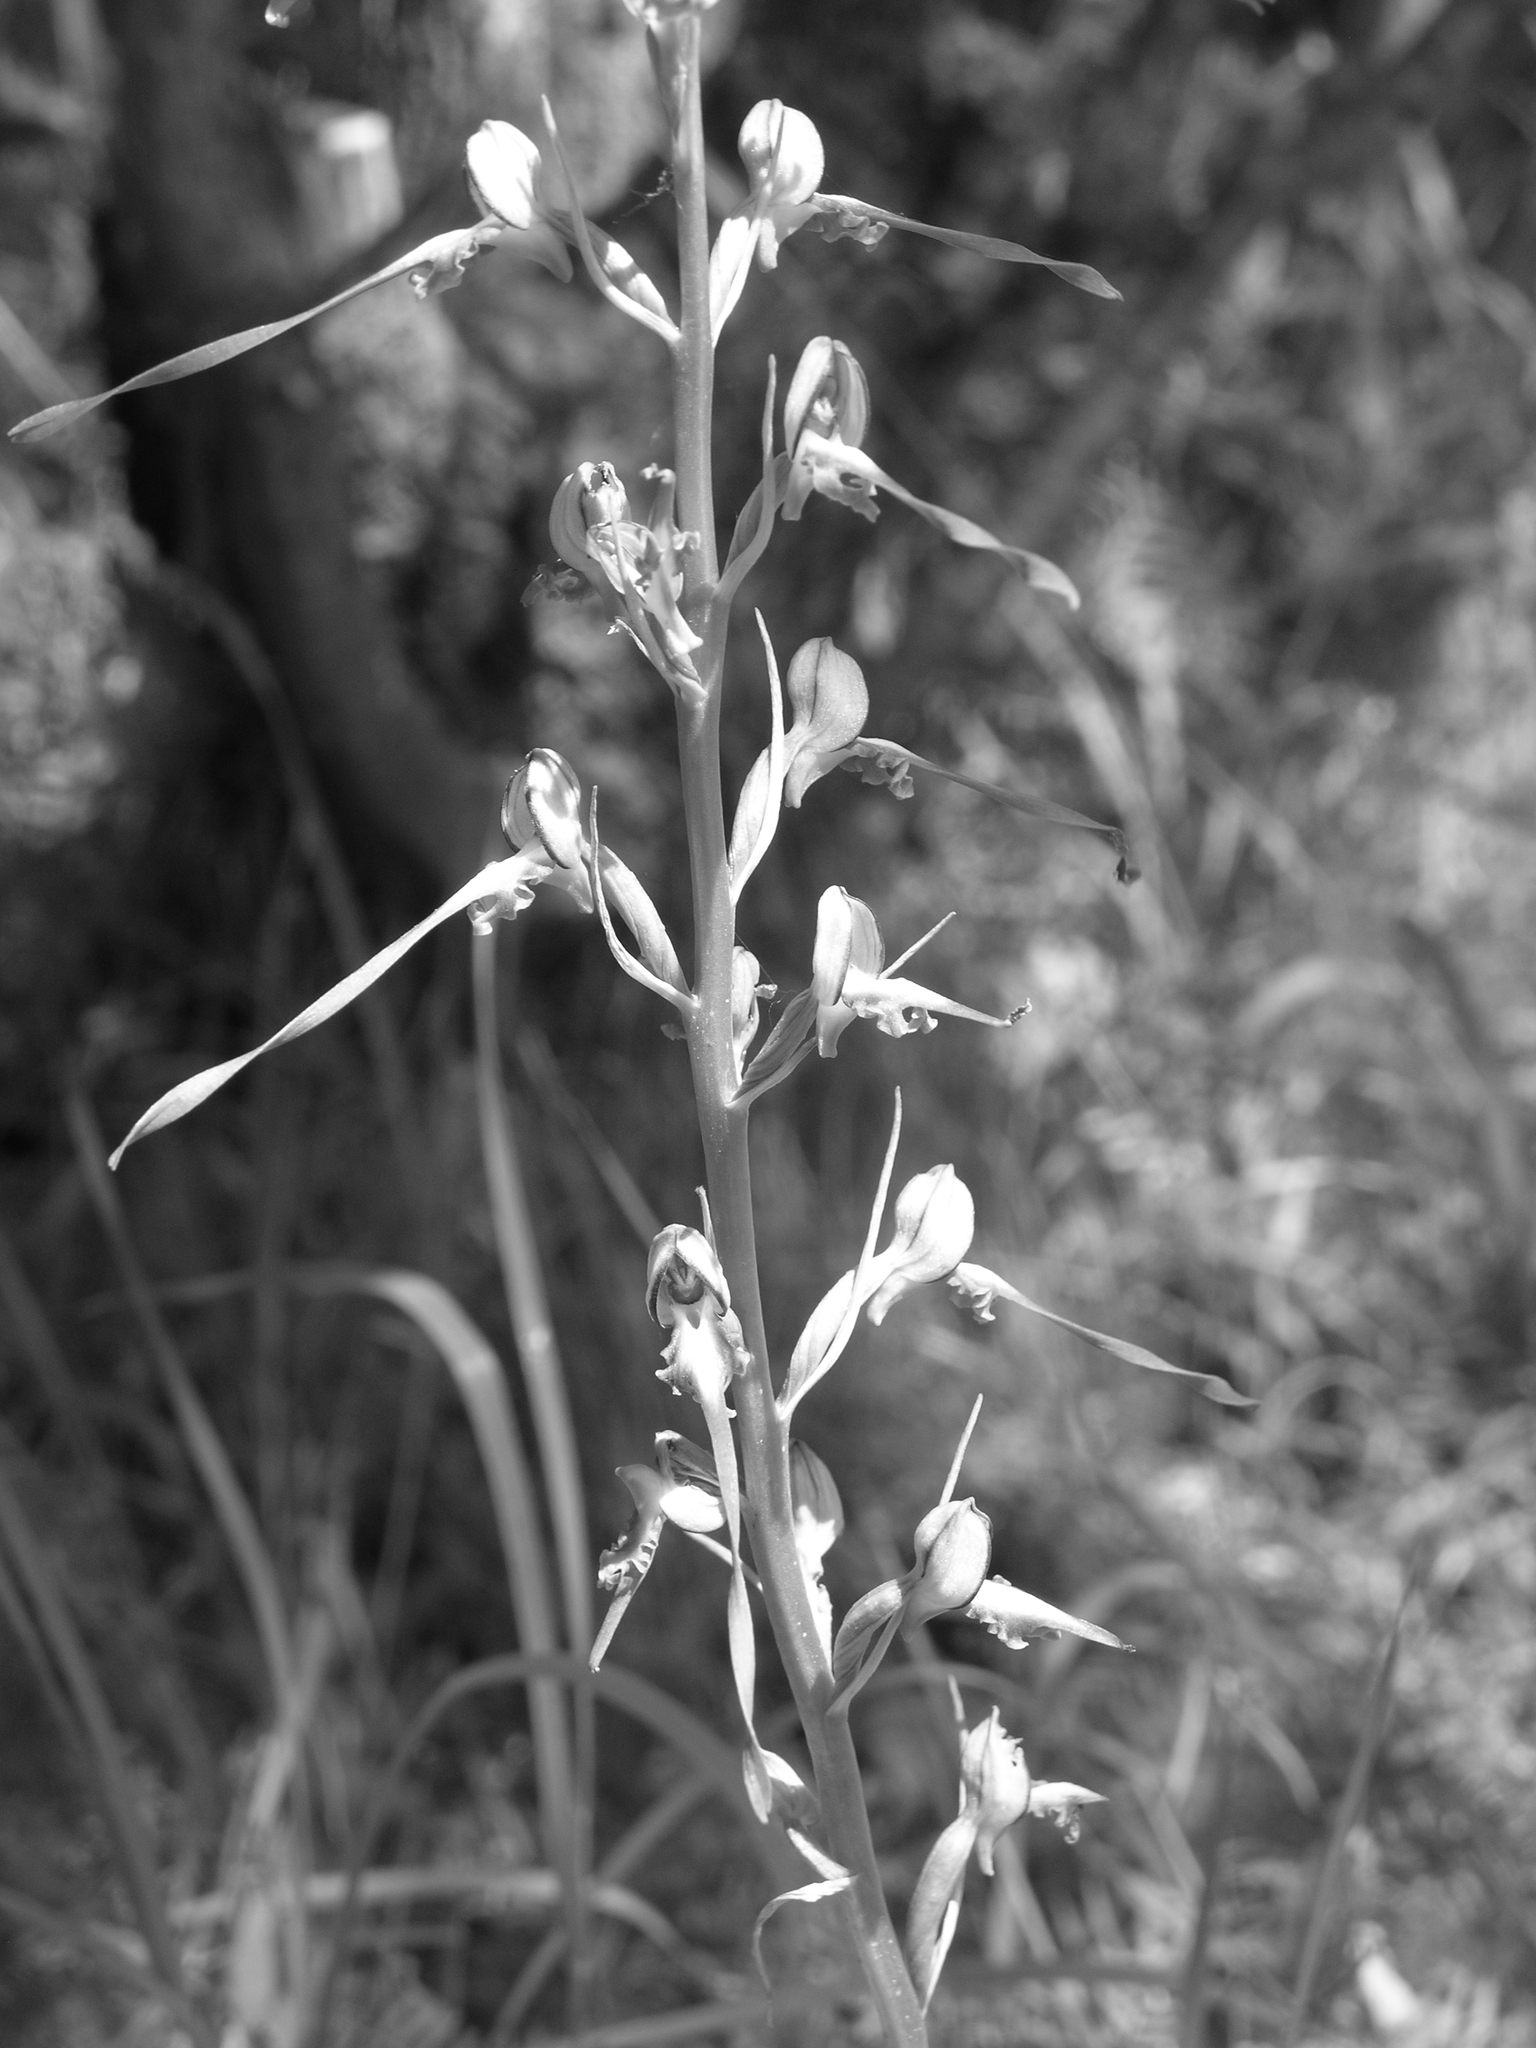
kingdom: Plantae
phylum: Tracheophyta
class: Liliopsida
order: Asparagales
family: Orchidaceae
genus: Himantoglossum
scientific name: Himantoglossum caprinum
